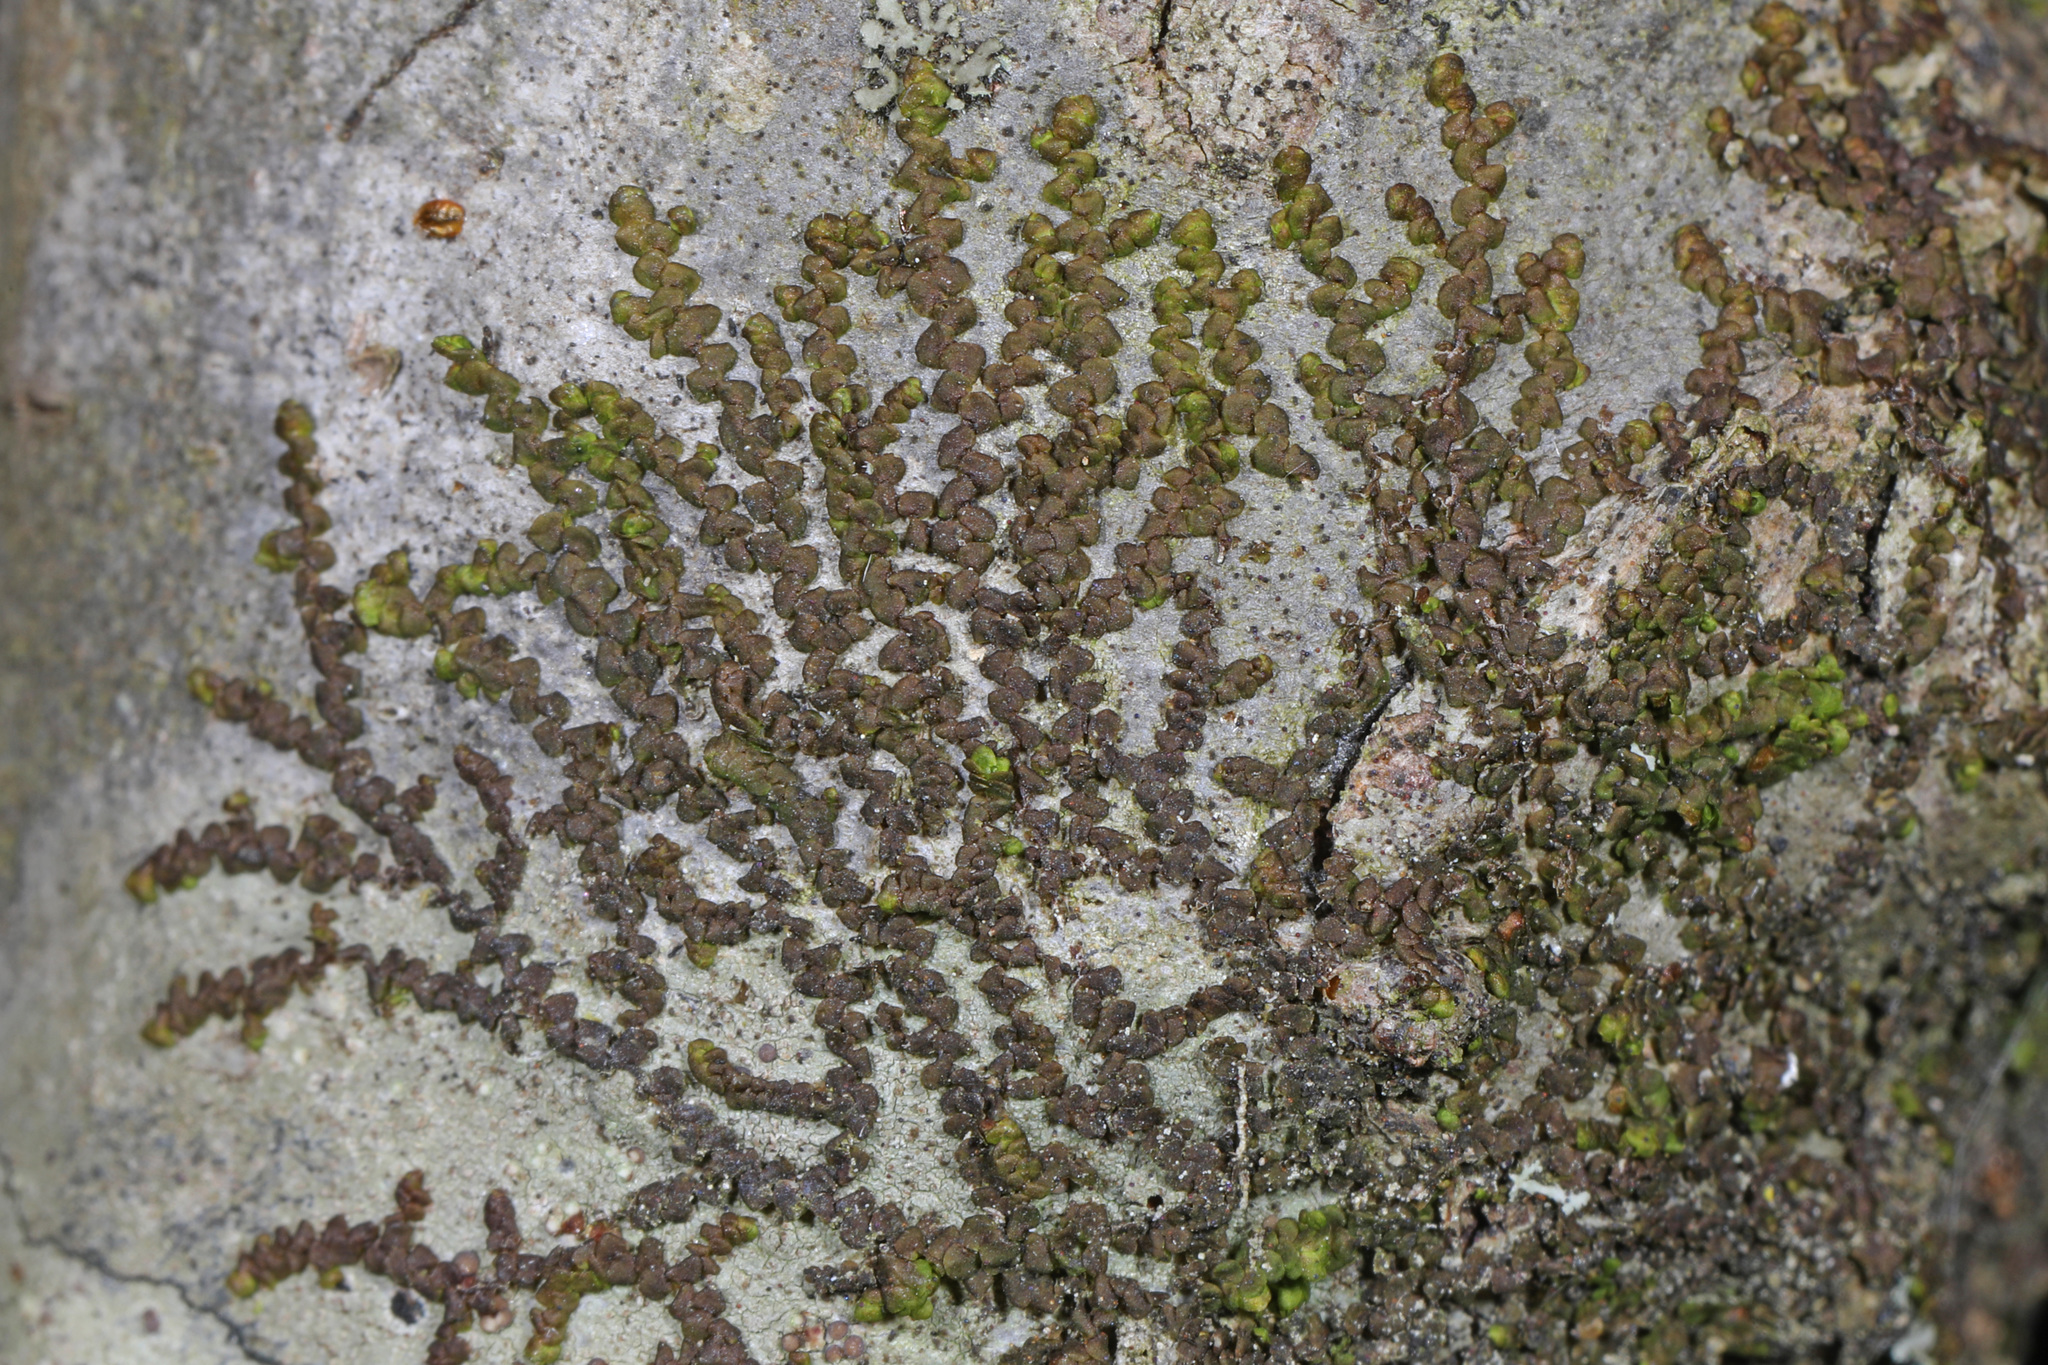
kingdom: Plantae
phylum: Marchantiophyta
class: Jungermanniopsida
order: Porellales
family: Frullaniaceae
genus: Frullania
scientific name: Frullania eboracensis
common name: New york scalewort
